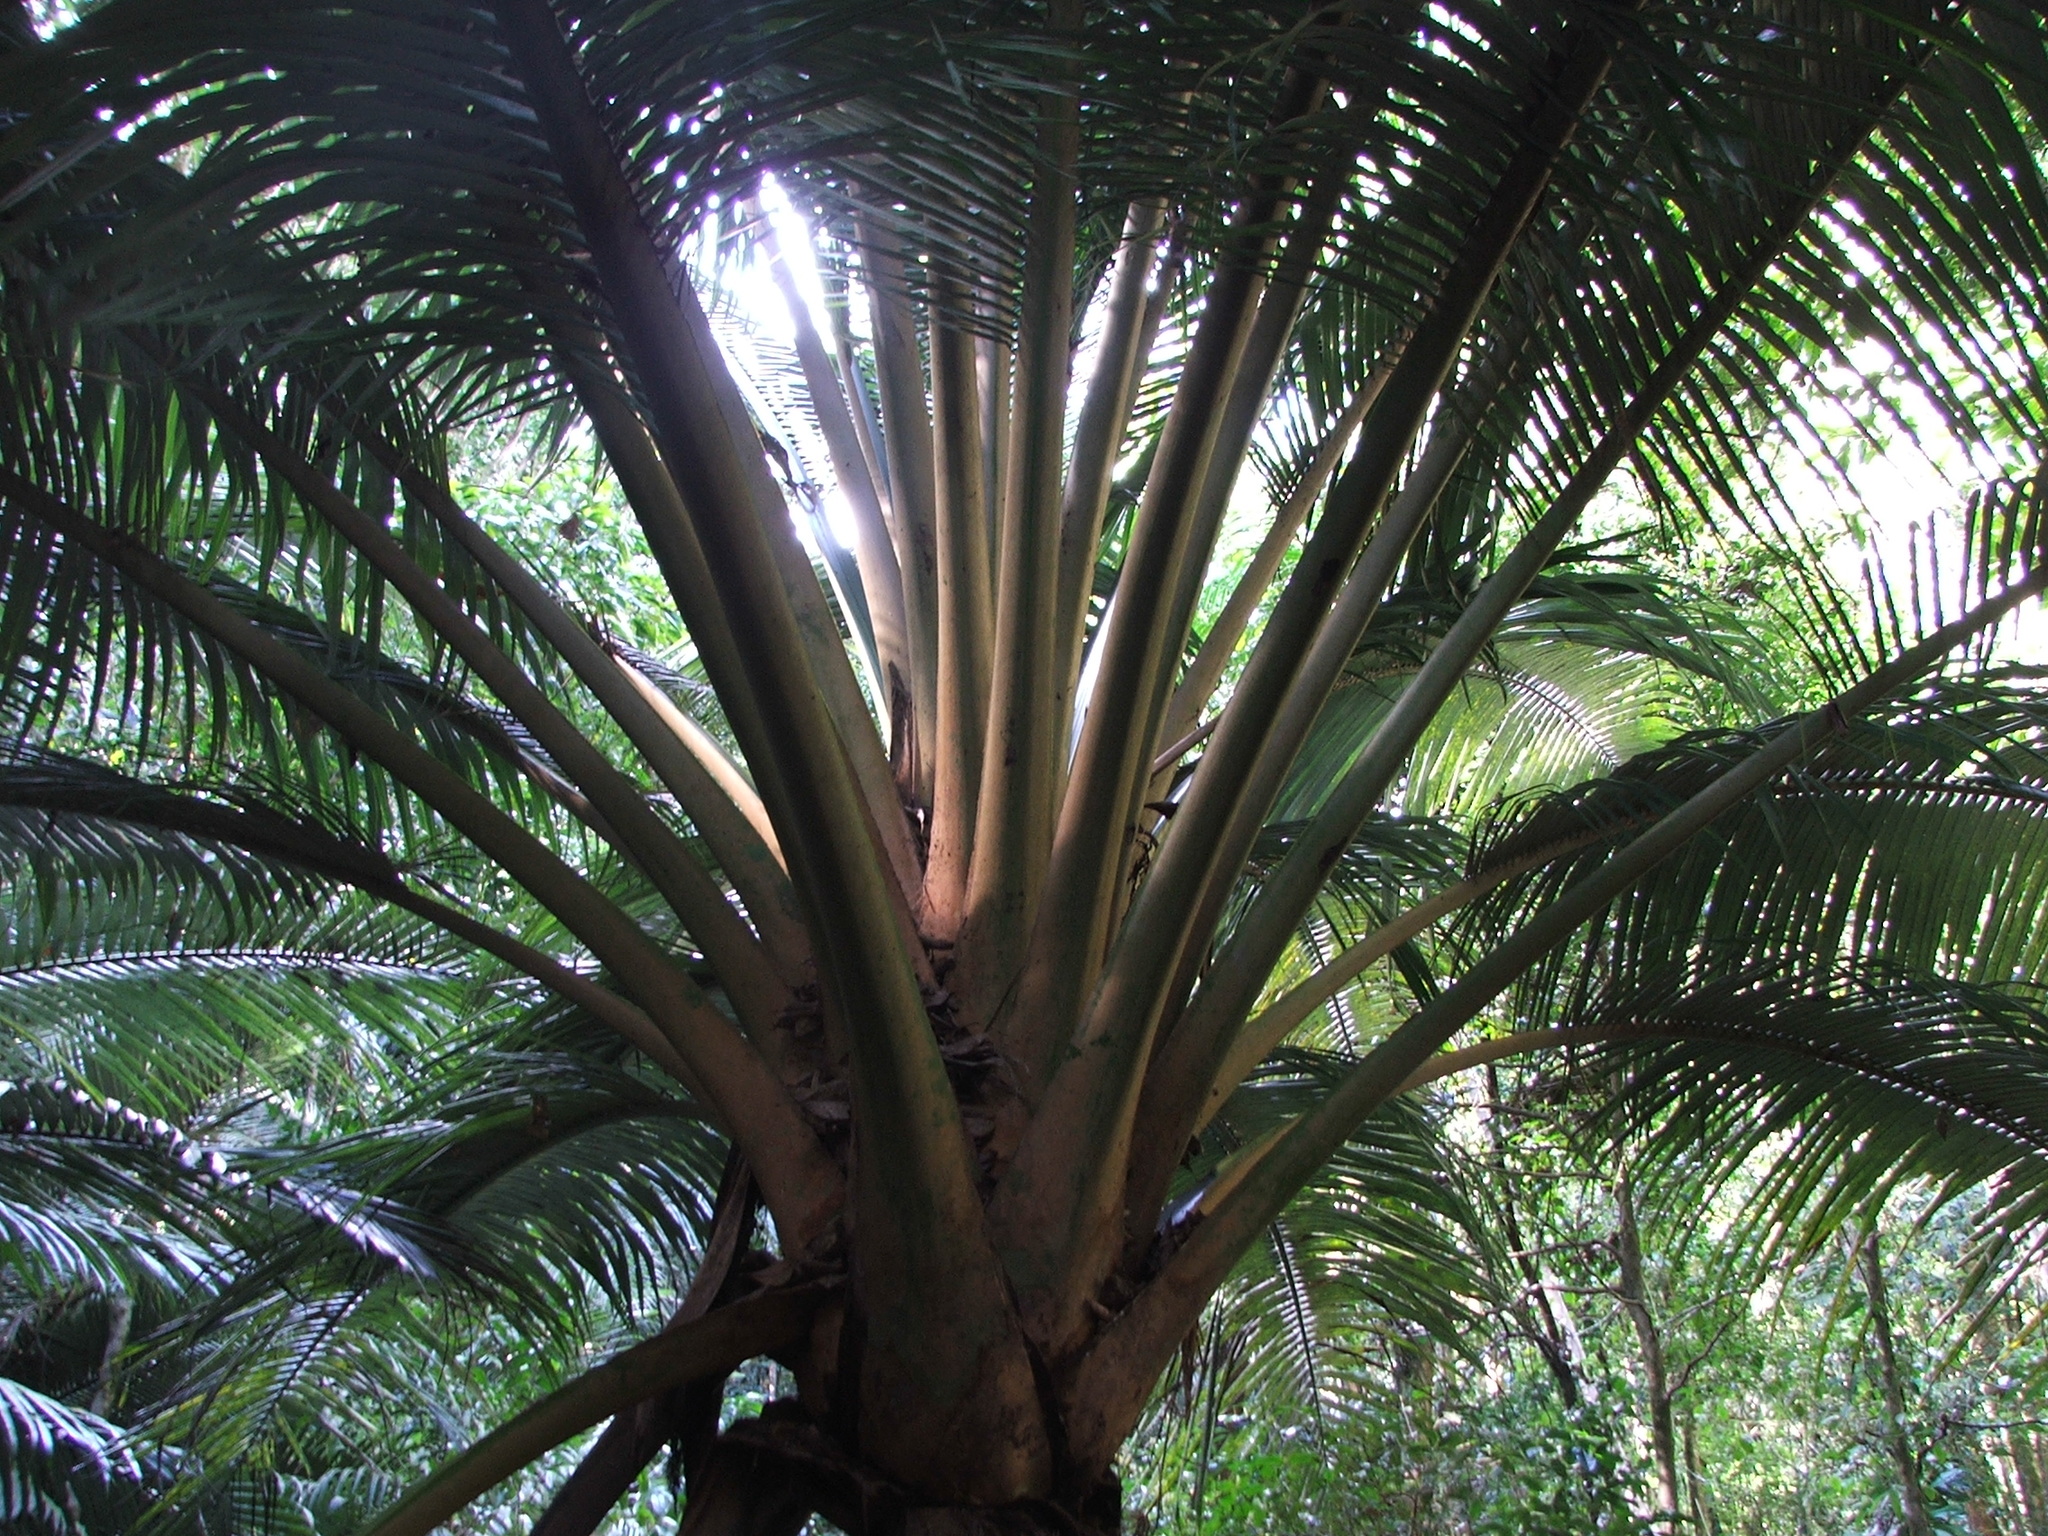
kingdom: Plantae
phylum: Tracheophyta
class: Liliopsida
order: Arecales
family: Arecaceae
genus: Oraniopsis
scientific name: Oraniopsis appendiculata
